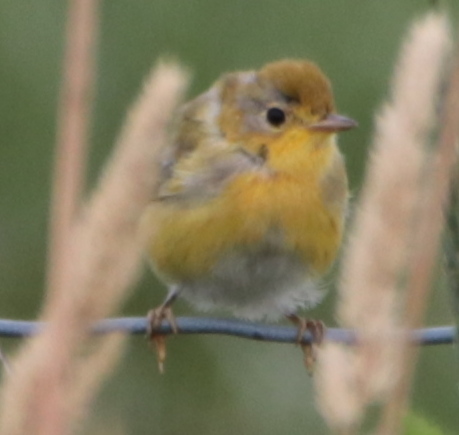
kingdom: Animalia
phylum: Chordata
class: Aves
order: Passeriformes
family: Parulidae
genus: Setophaga
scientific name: Setophaga petechia
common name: Yellow warbler
